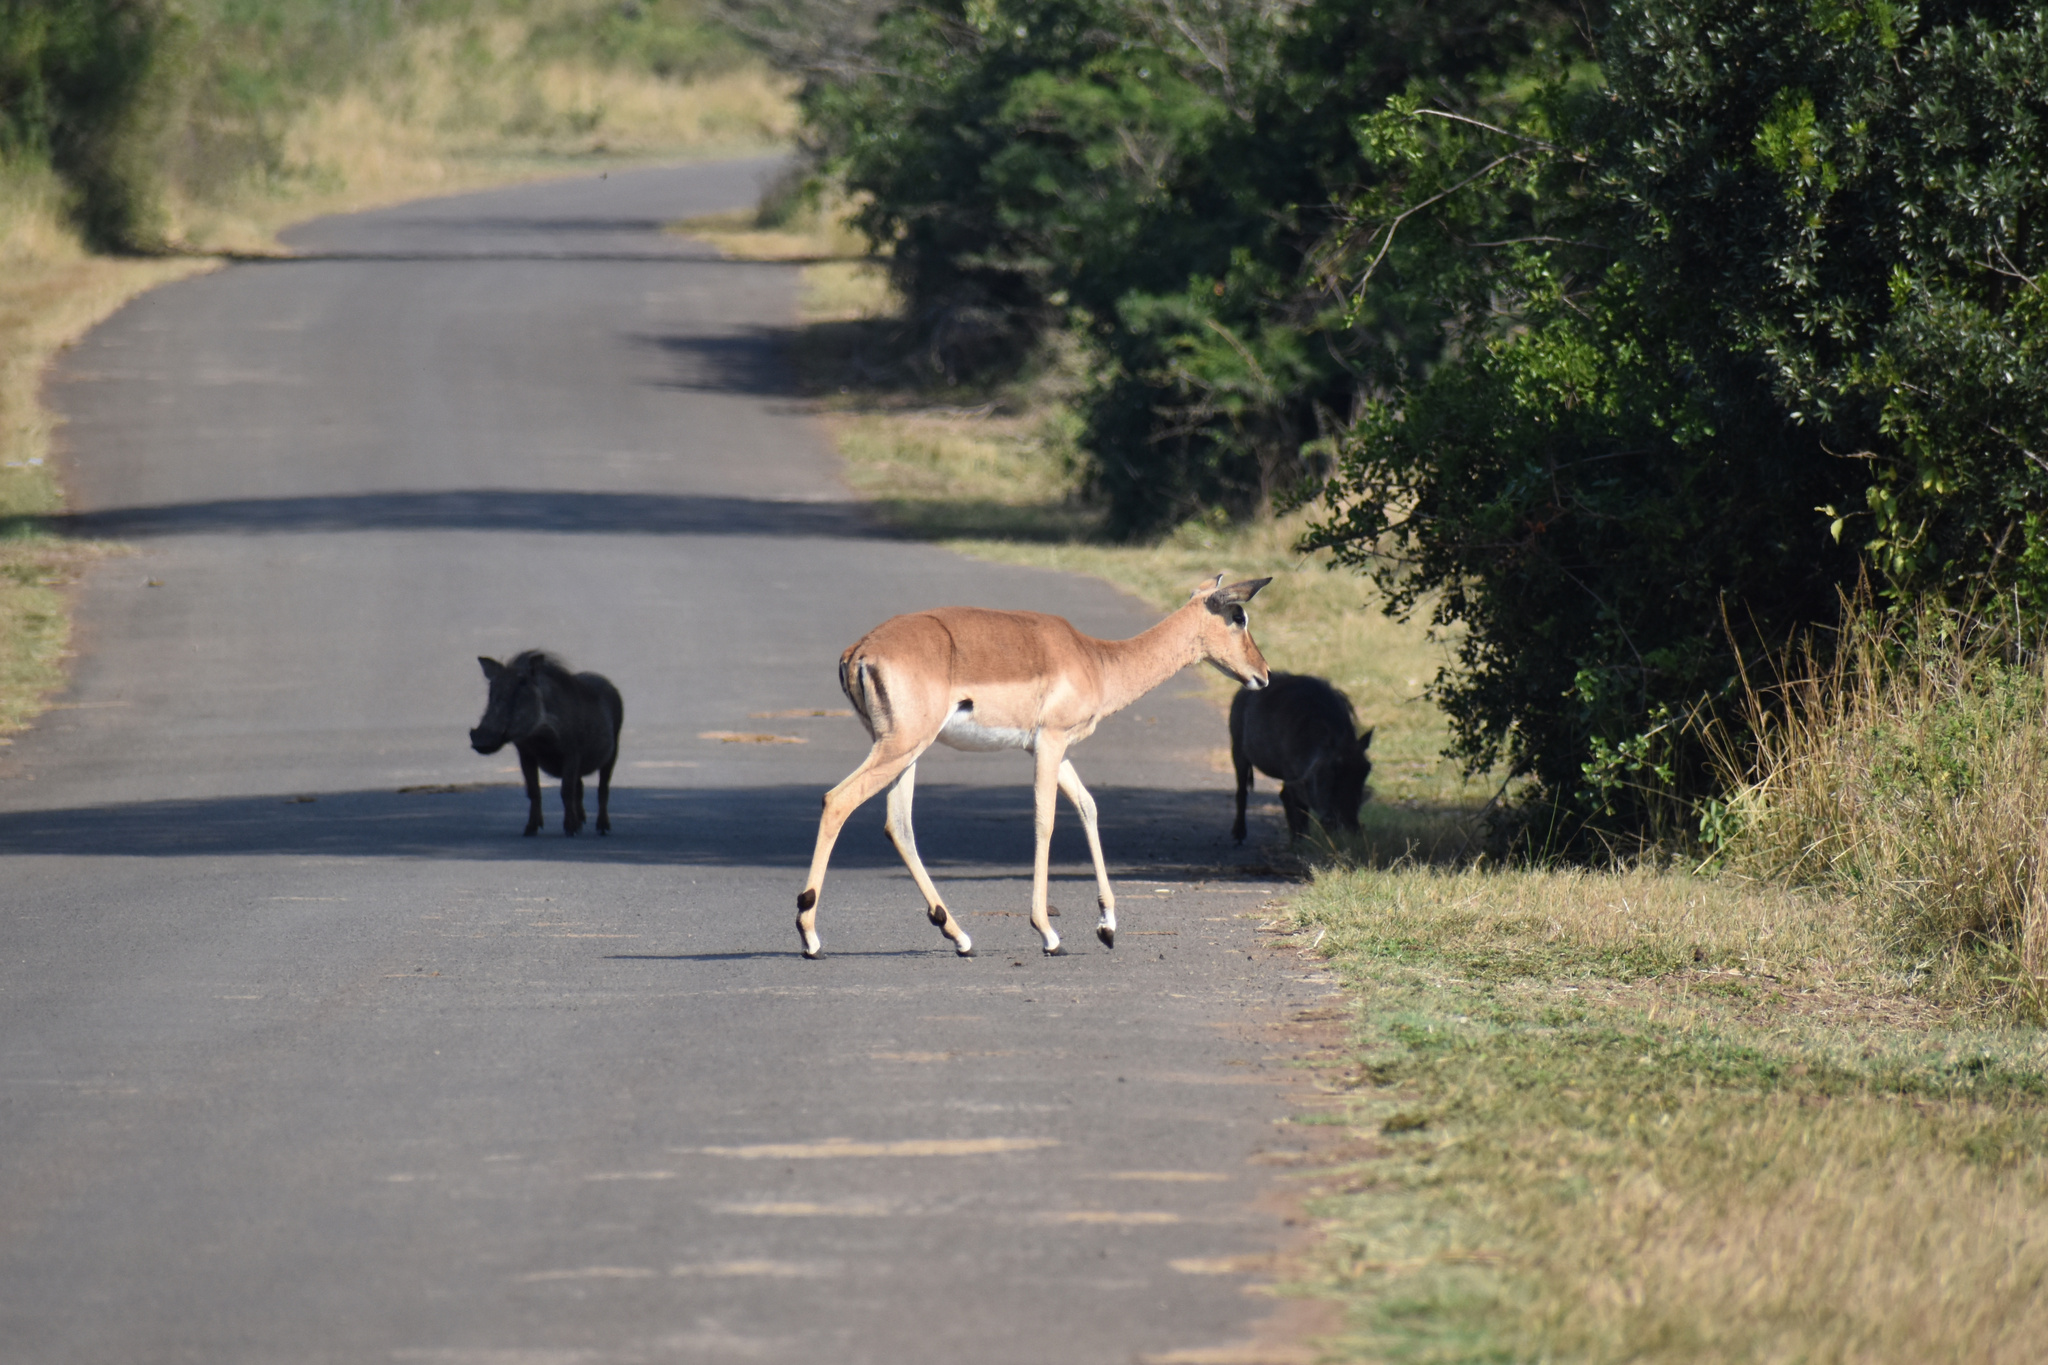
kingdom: Animalia
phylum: Chordata
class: Mammalia
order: Artiodactyla
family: Bovidae
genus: Aepyceros
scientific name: Aepyceros melampus
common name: Impala
